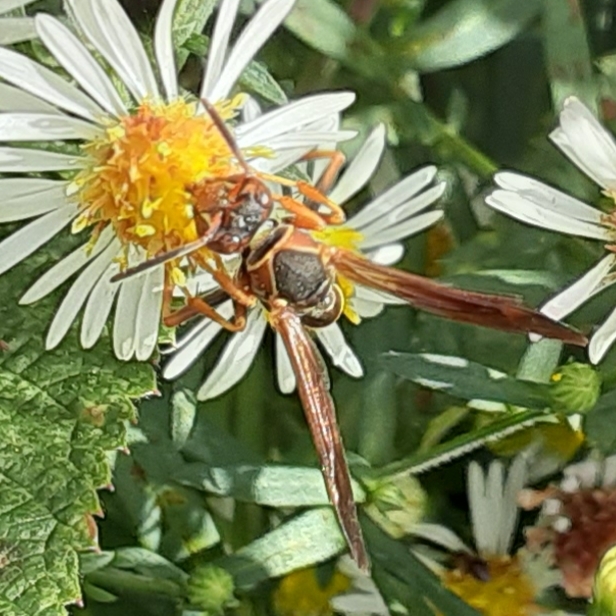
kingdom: Animalia
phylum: Arthropoda
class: Insecta
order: Hymenoptera
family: Eumenidae
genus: Polistes
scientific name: Polistes fuscatus
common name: Dark paper wasp
